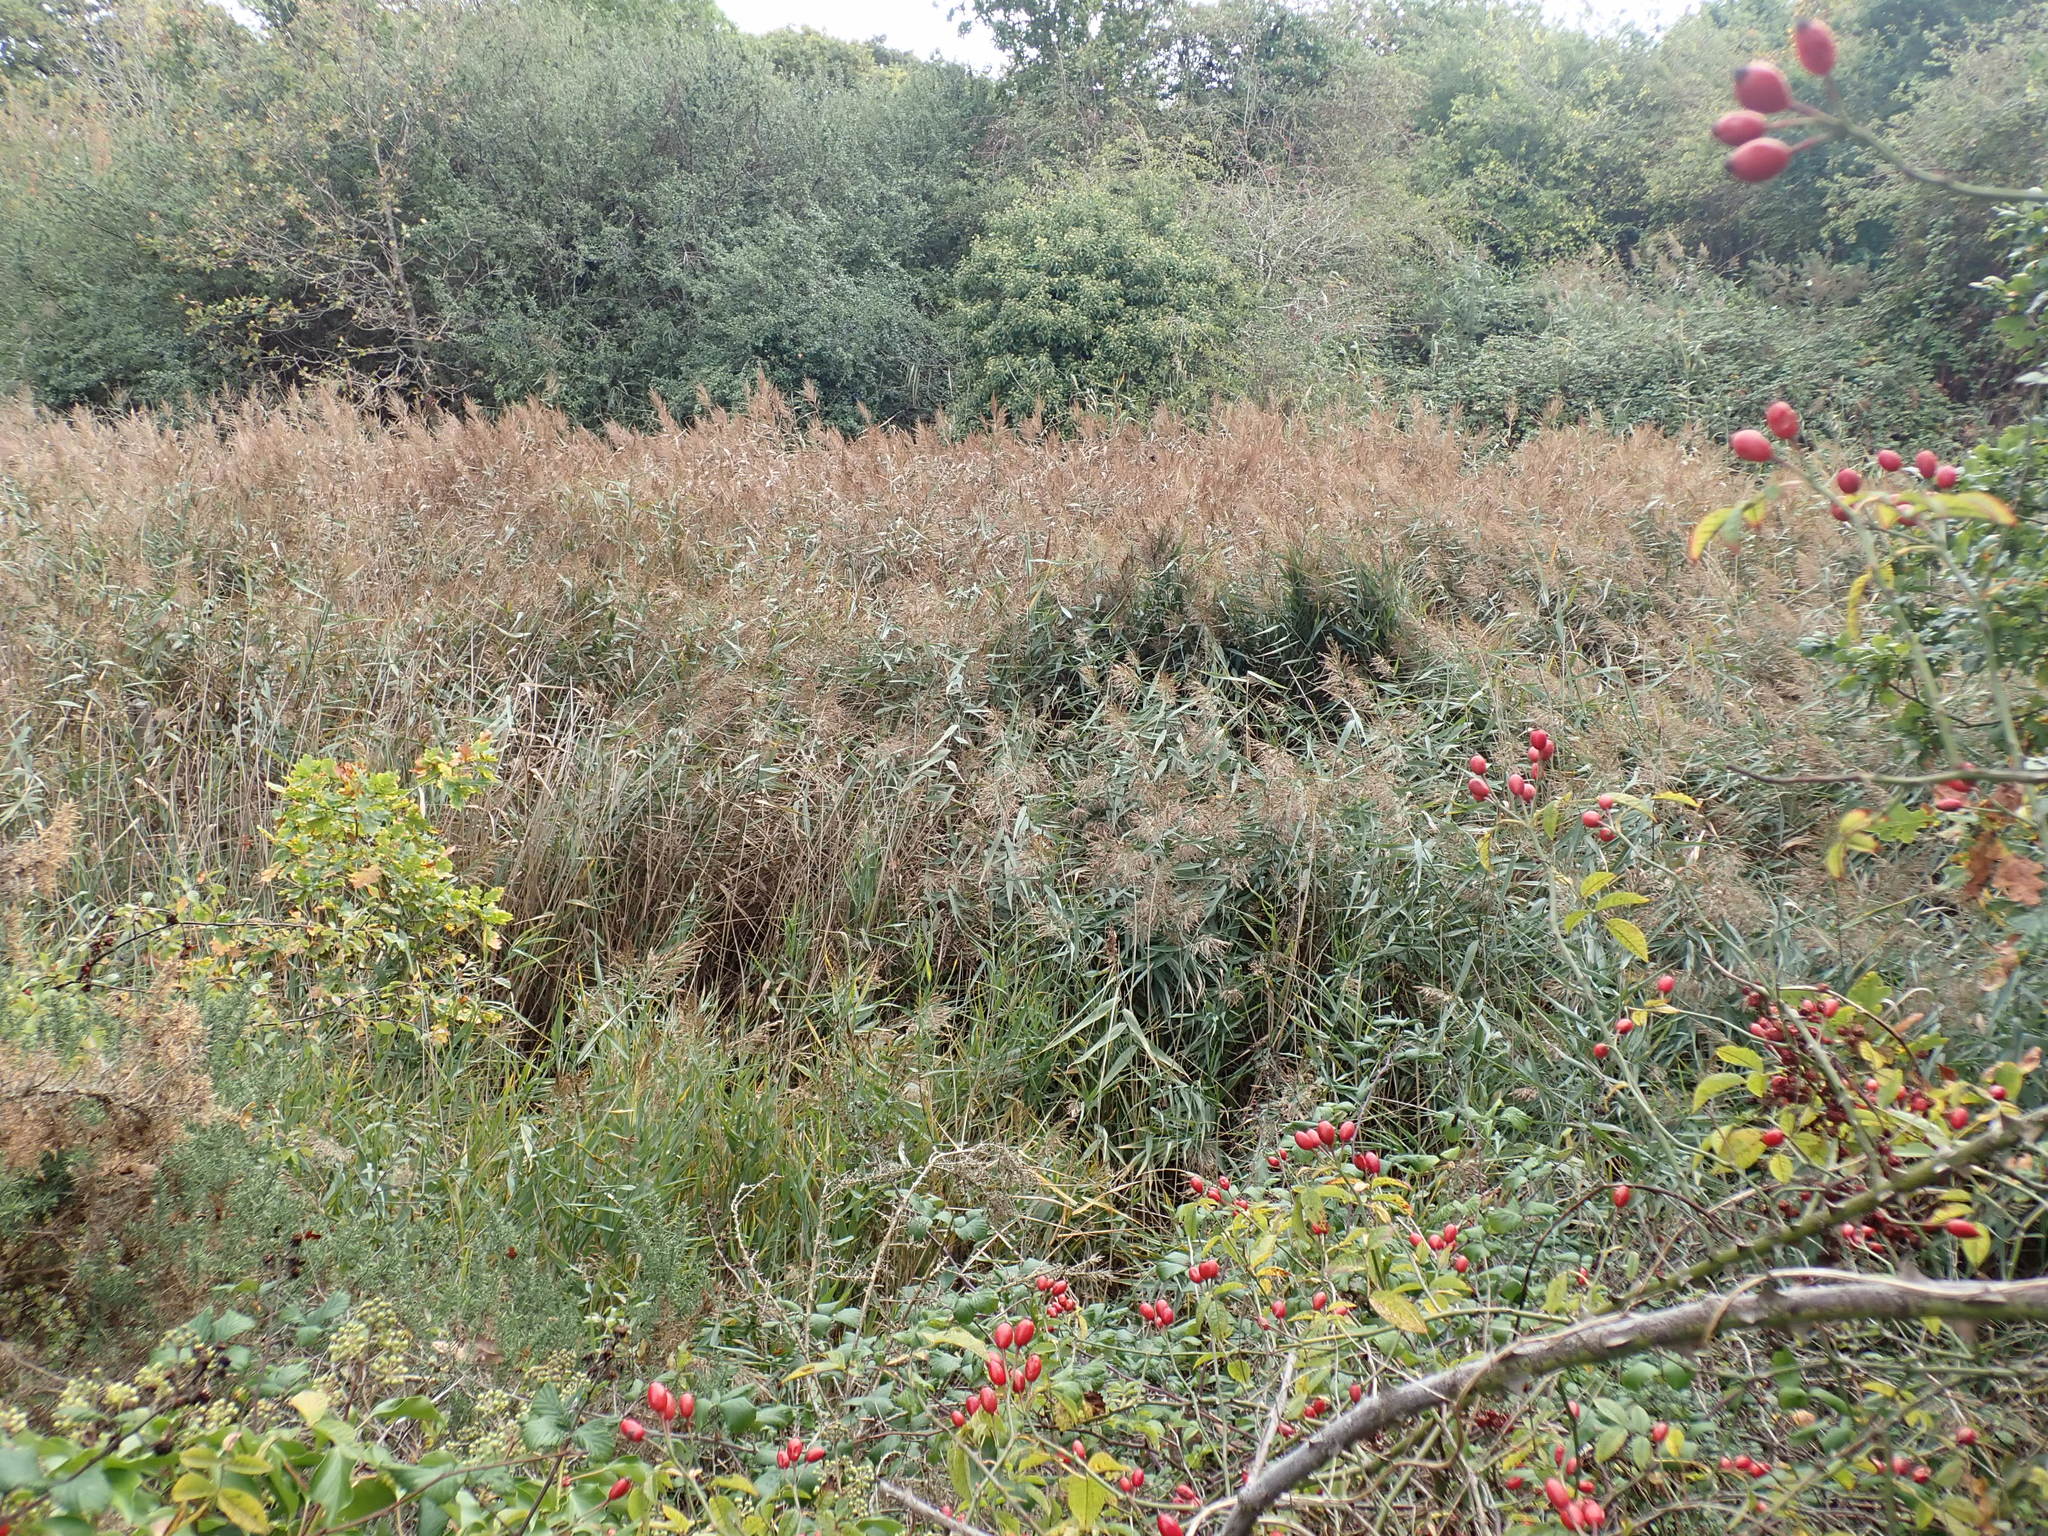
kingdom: Plantae
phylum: Tracheophyta
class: Liliopsida
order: Poales
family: Poaceae
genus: Phragmites
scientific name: Phragmites australis
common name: Common reed
